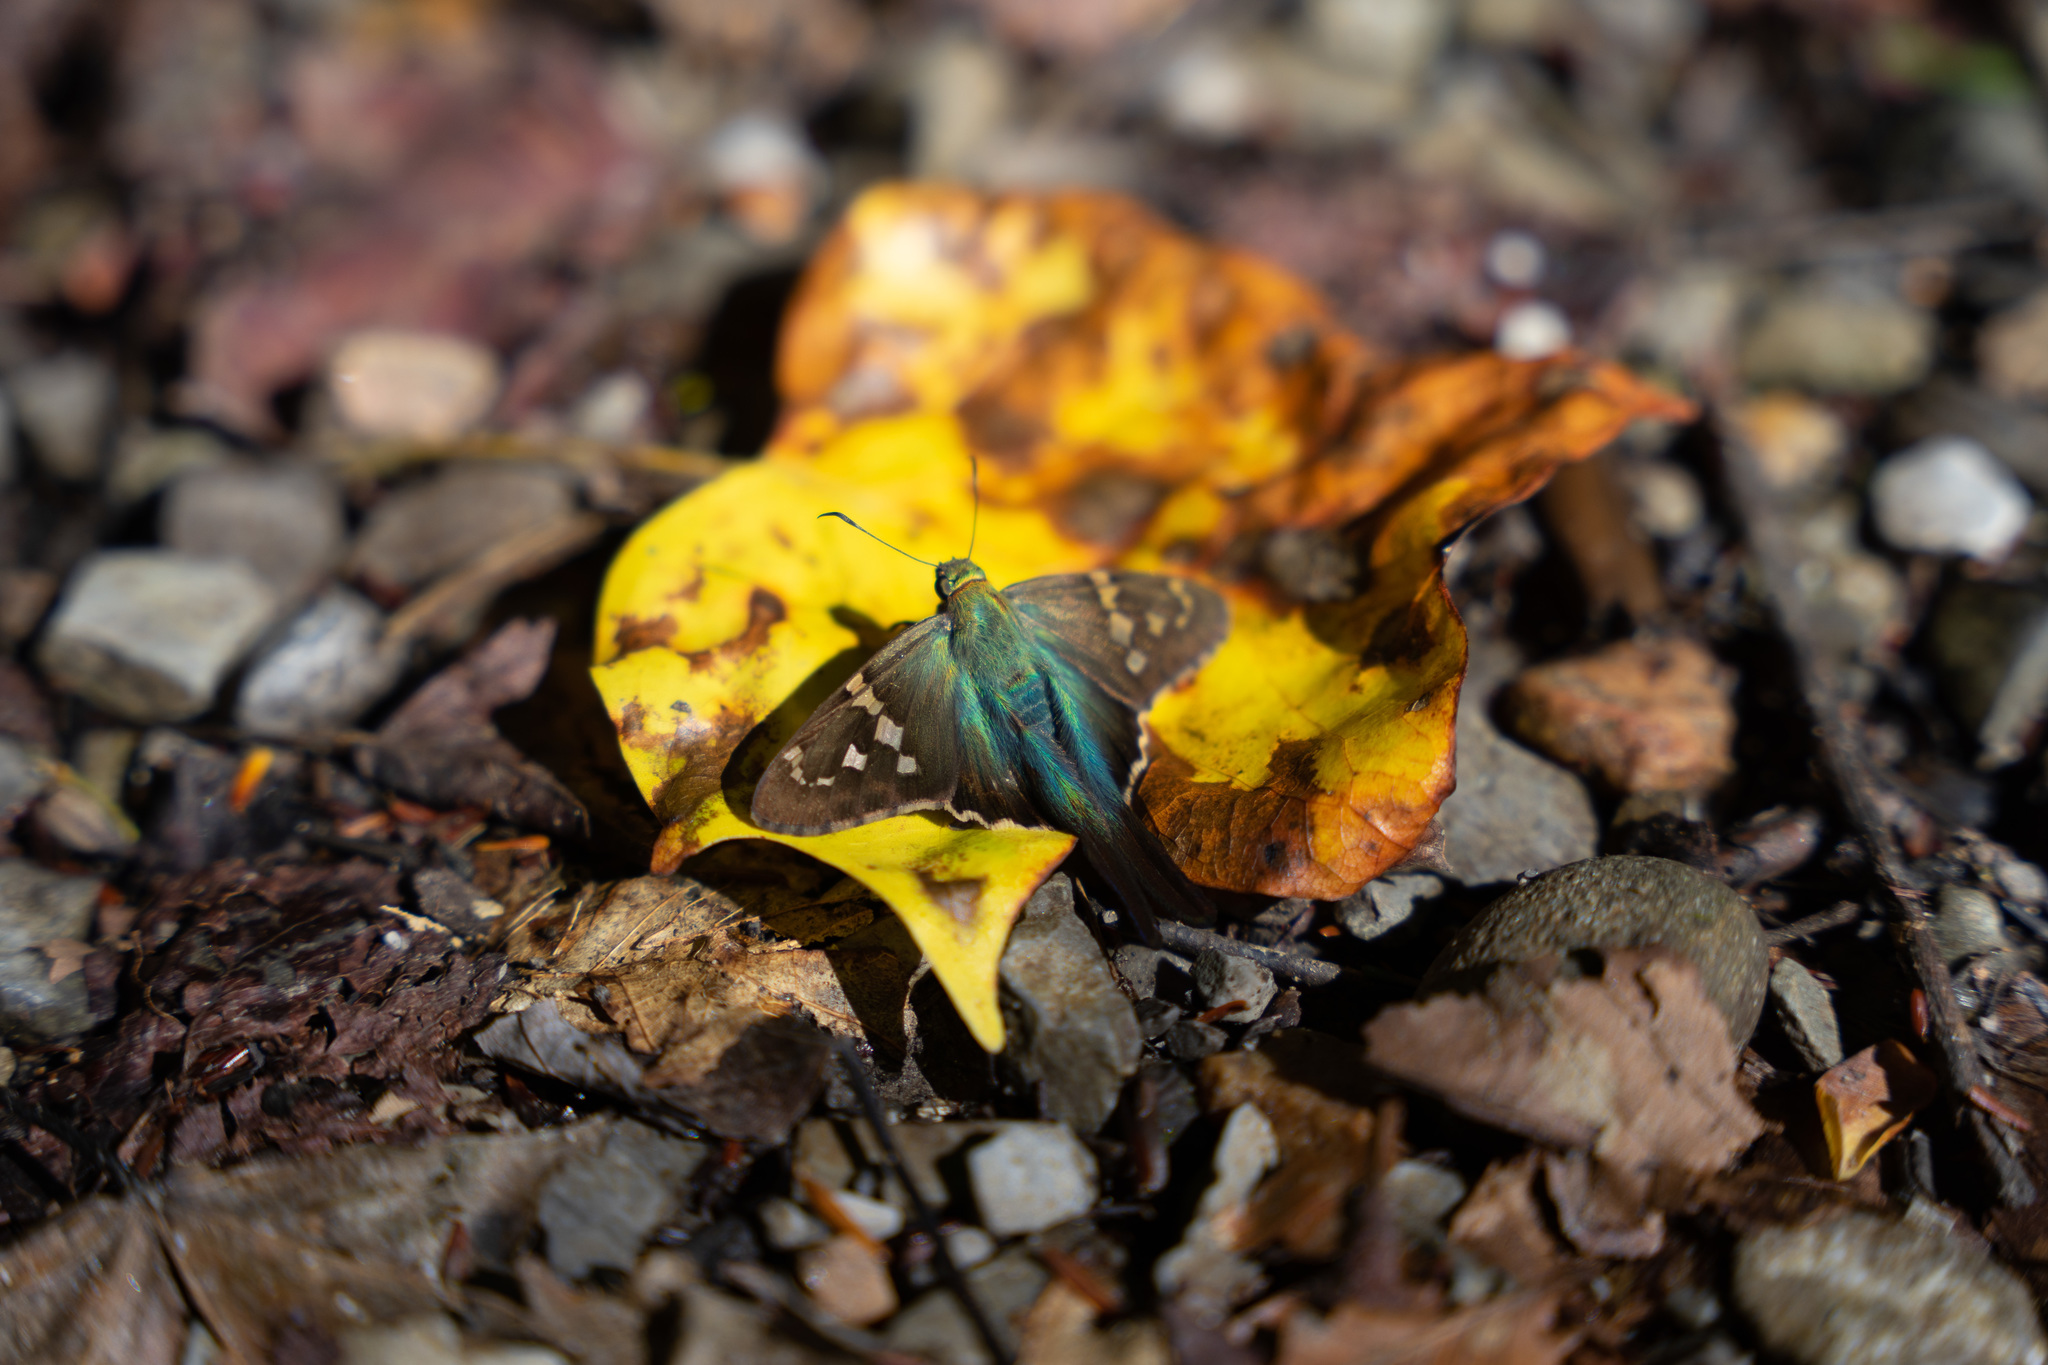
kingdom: Animalia
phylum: Arthropoda
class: Insecta
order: Lepidoptera
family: Hesperiidae
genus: Urbanus
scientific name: Urbanus proteus
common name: Long-tailed skipper
